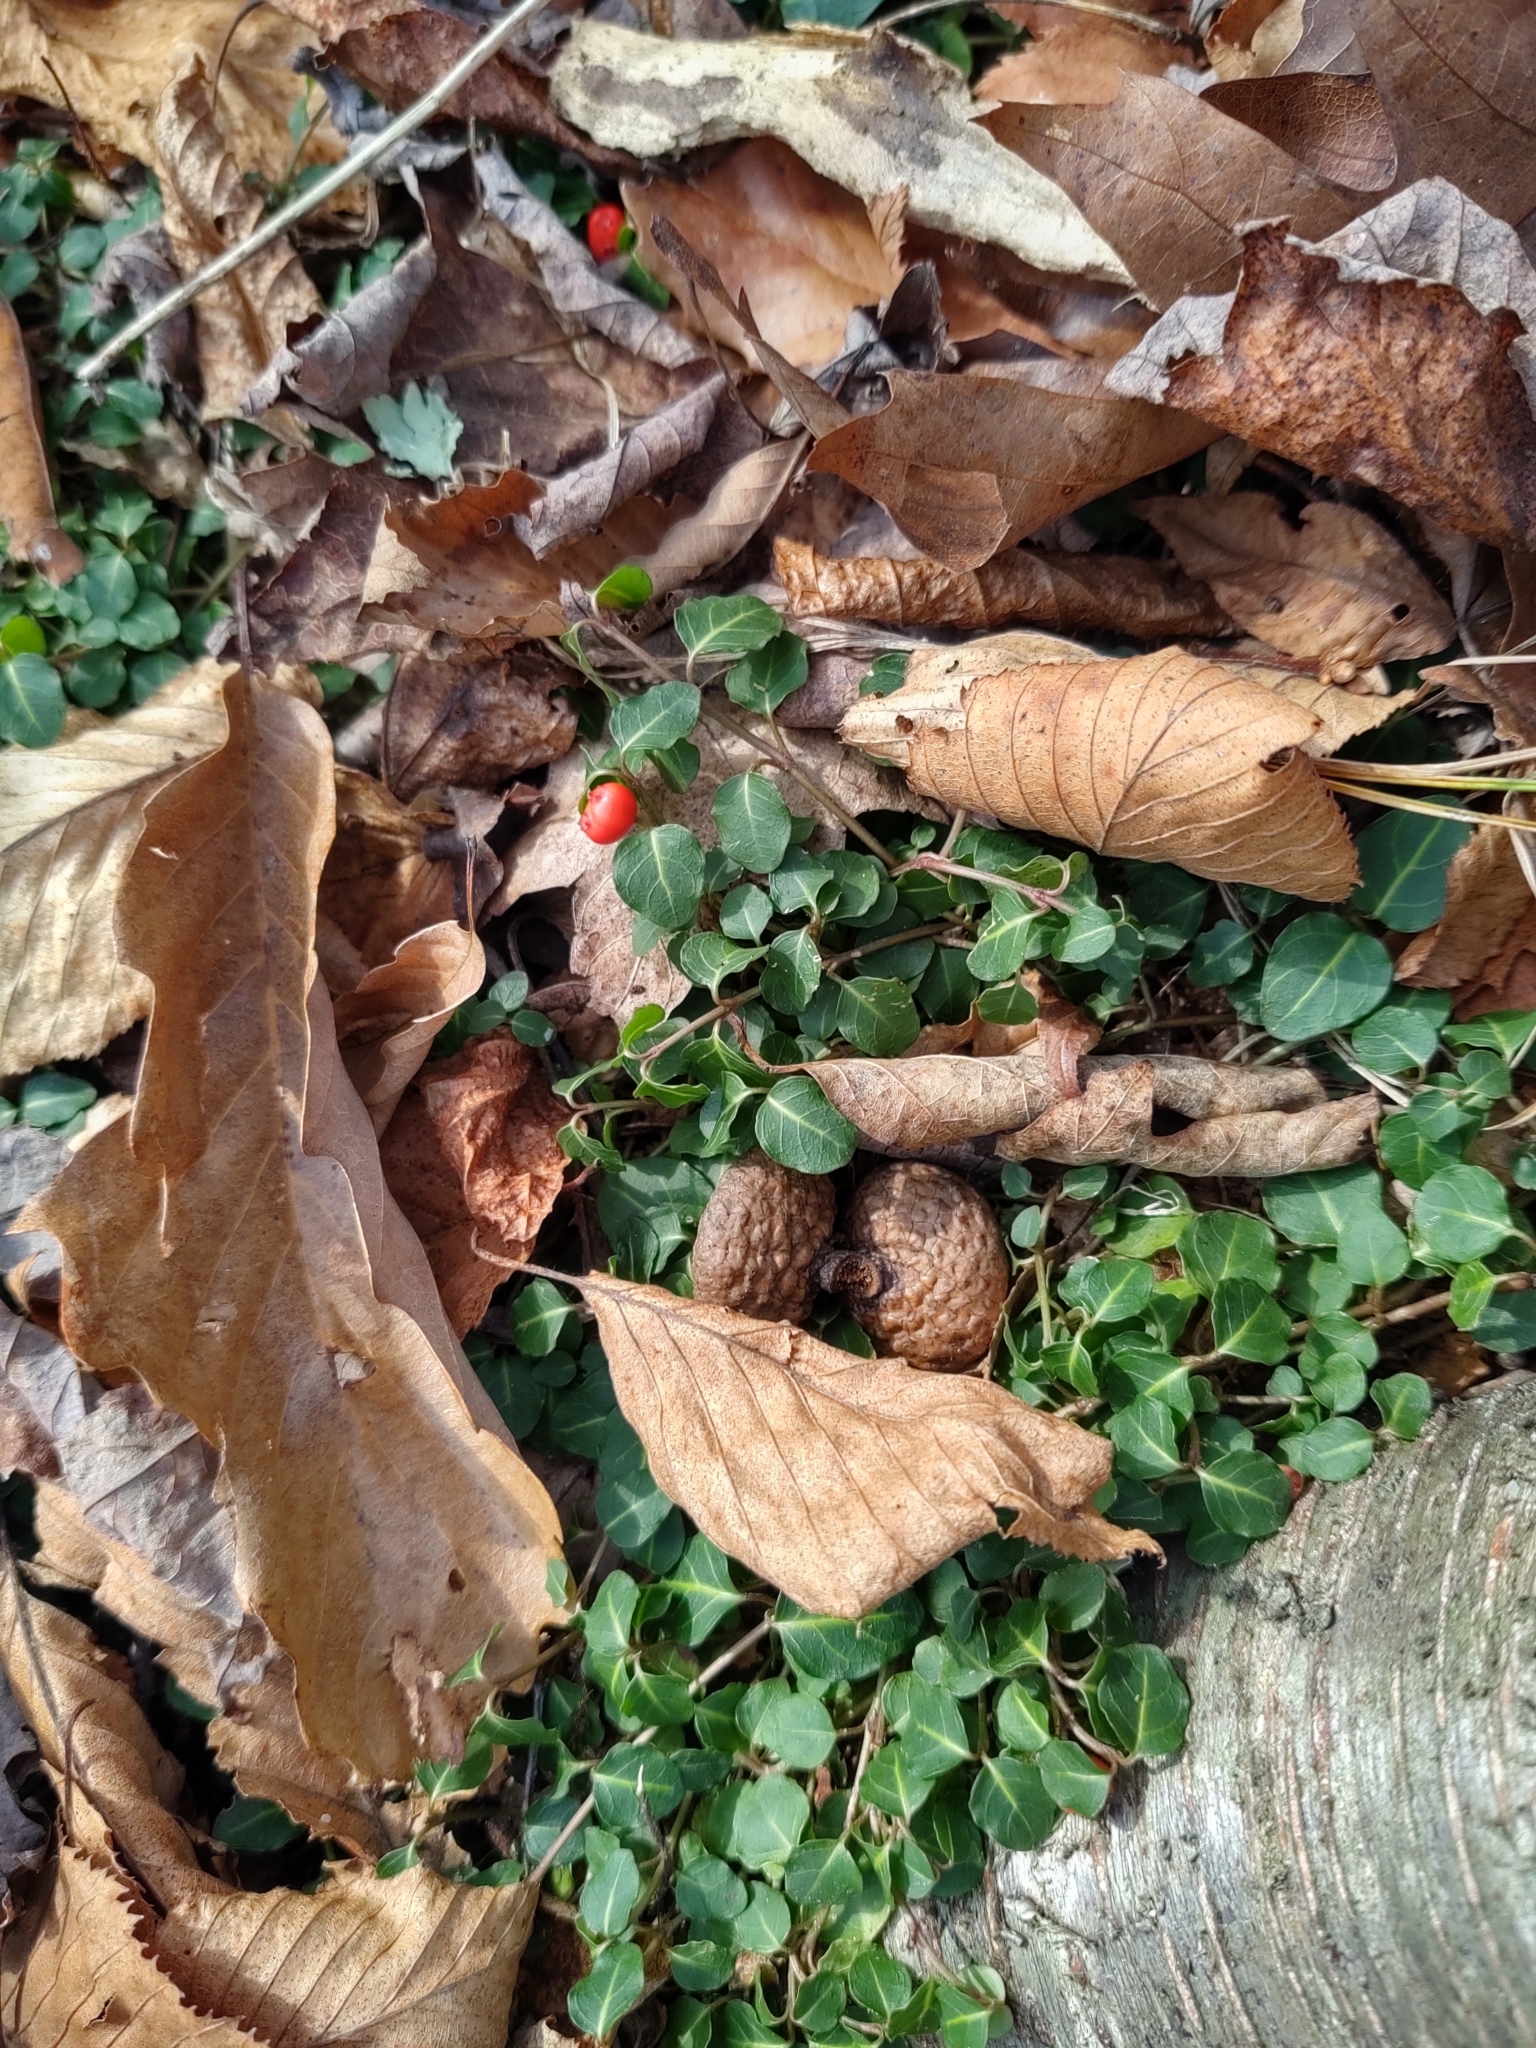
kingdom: Plantae
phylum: Tracheophyta
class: Magnoliopsida
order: Gentianales
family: Rubiaceae
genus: Mitchella
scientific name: Mitchella repens
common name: Partridge-berry
